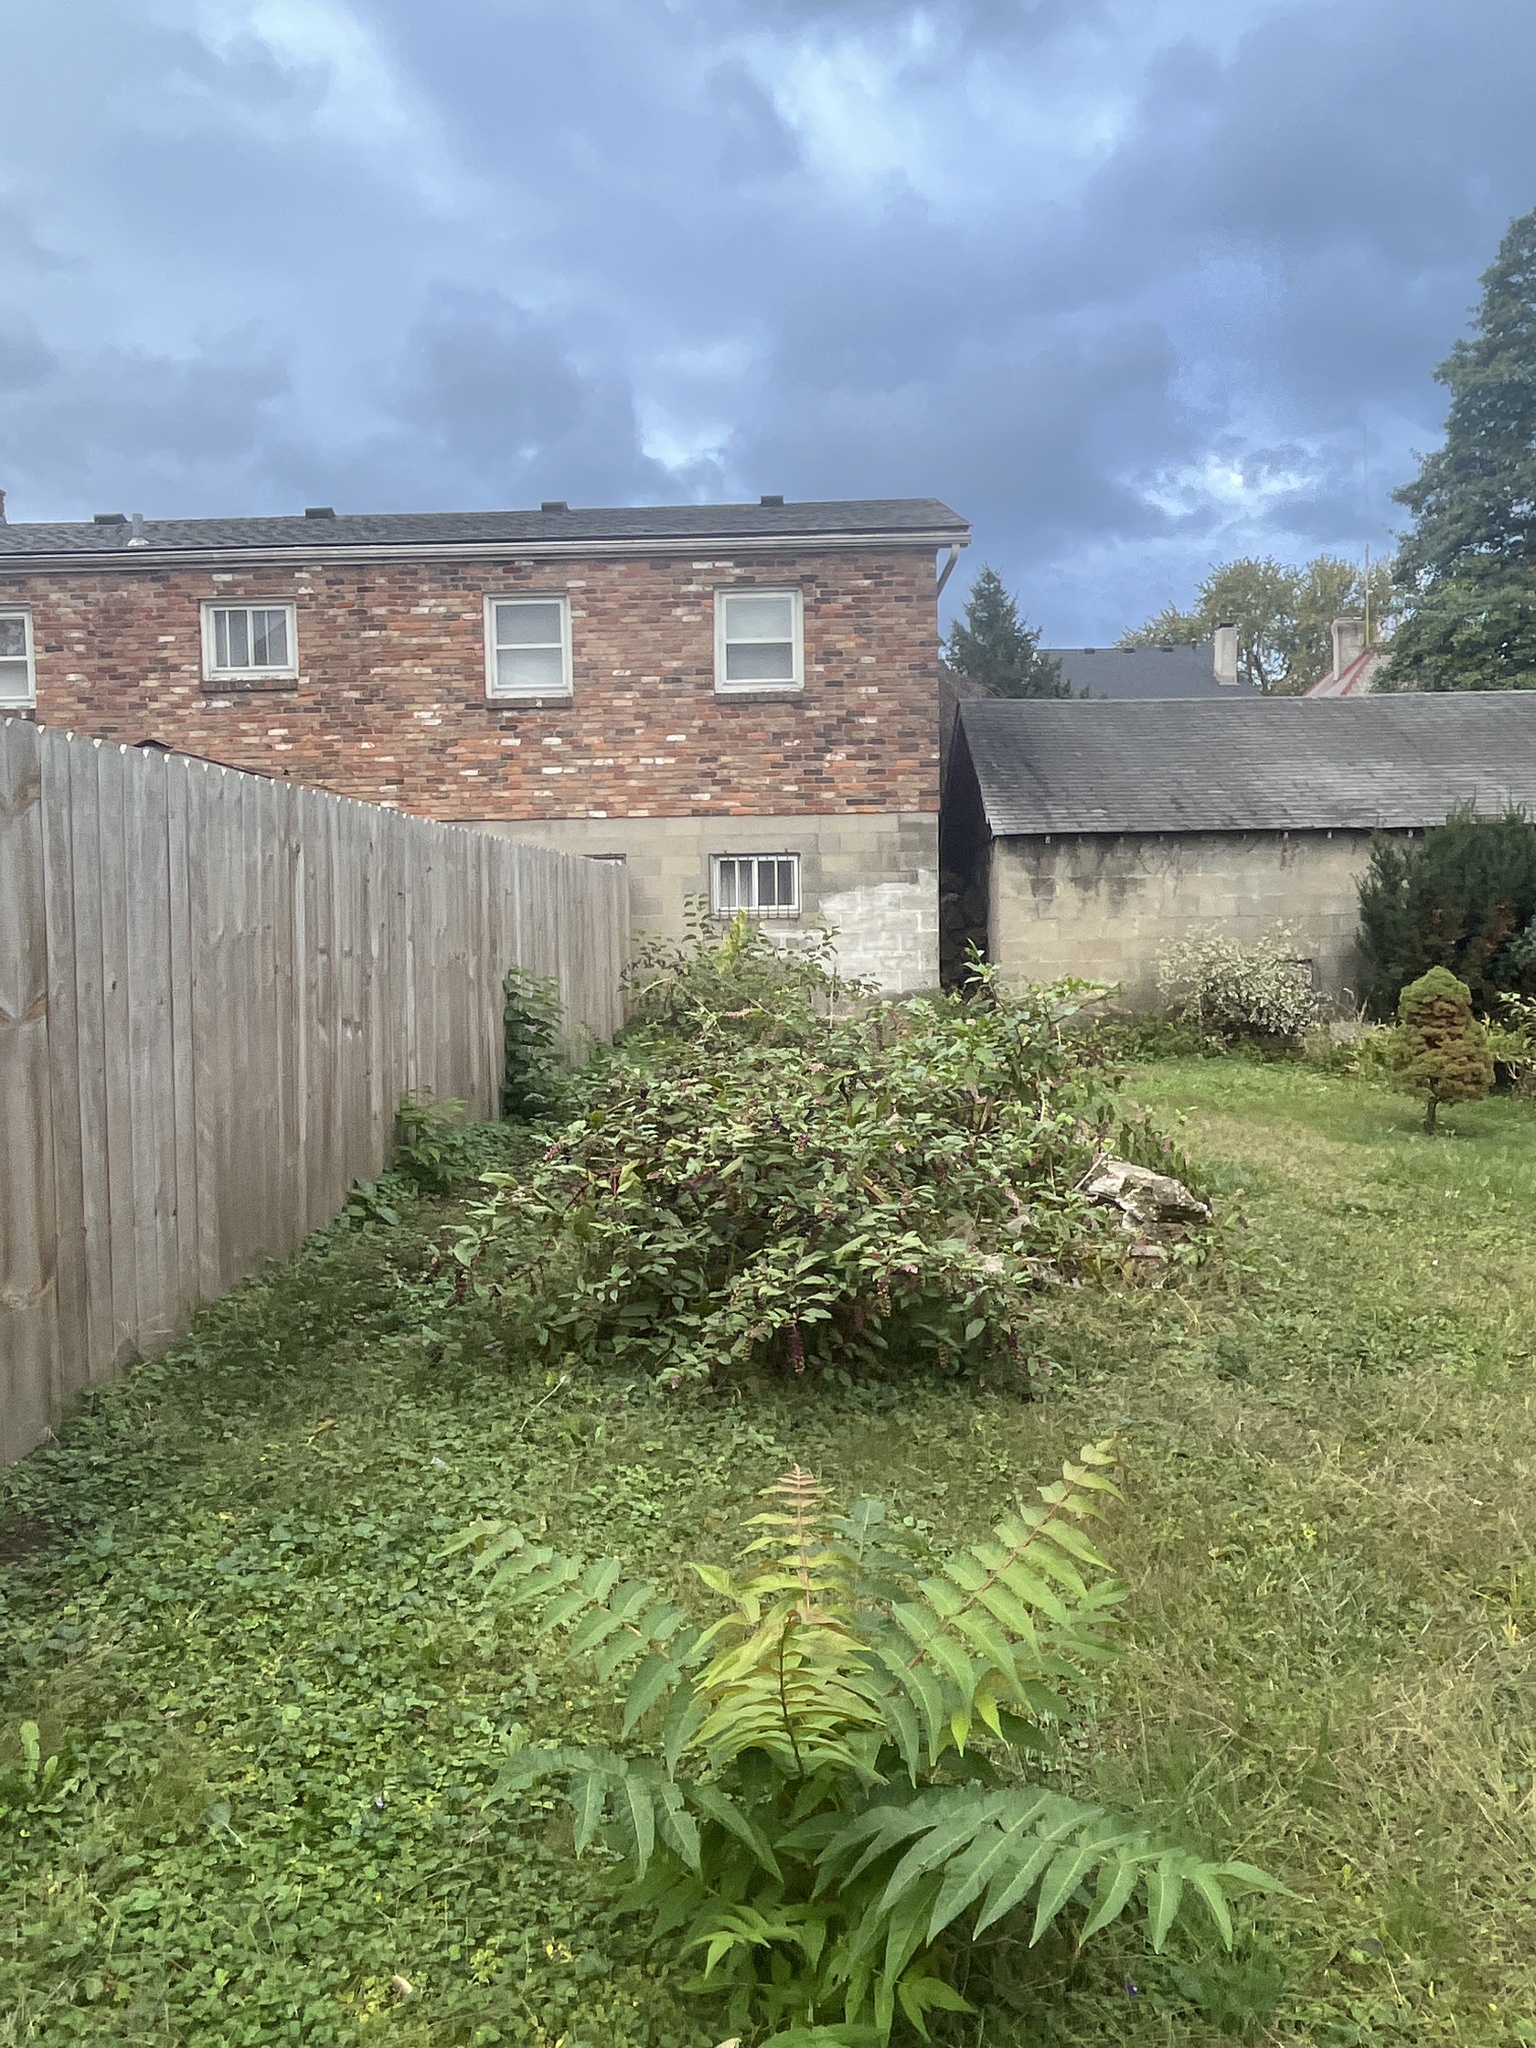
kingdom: Plantae
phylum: Tracheophyta
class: Magnoliopsida
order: Caryophyllales
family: Phytolaccaceae
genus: Phytolacca
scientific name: Phytolacca americana
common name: American pokeweed
